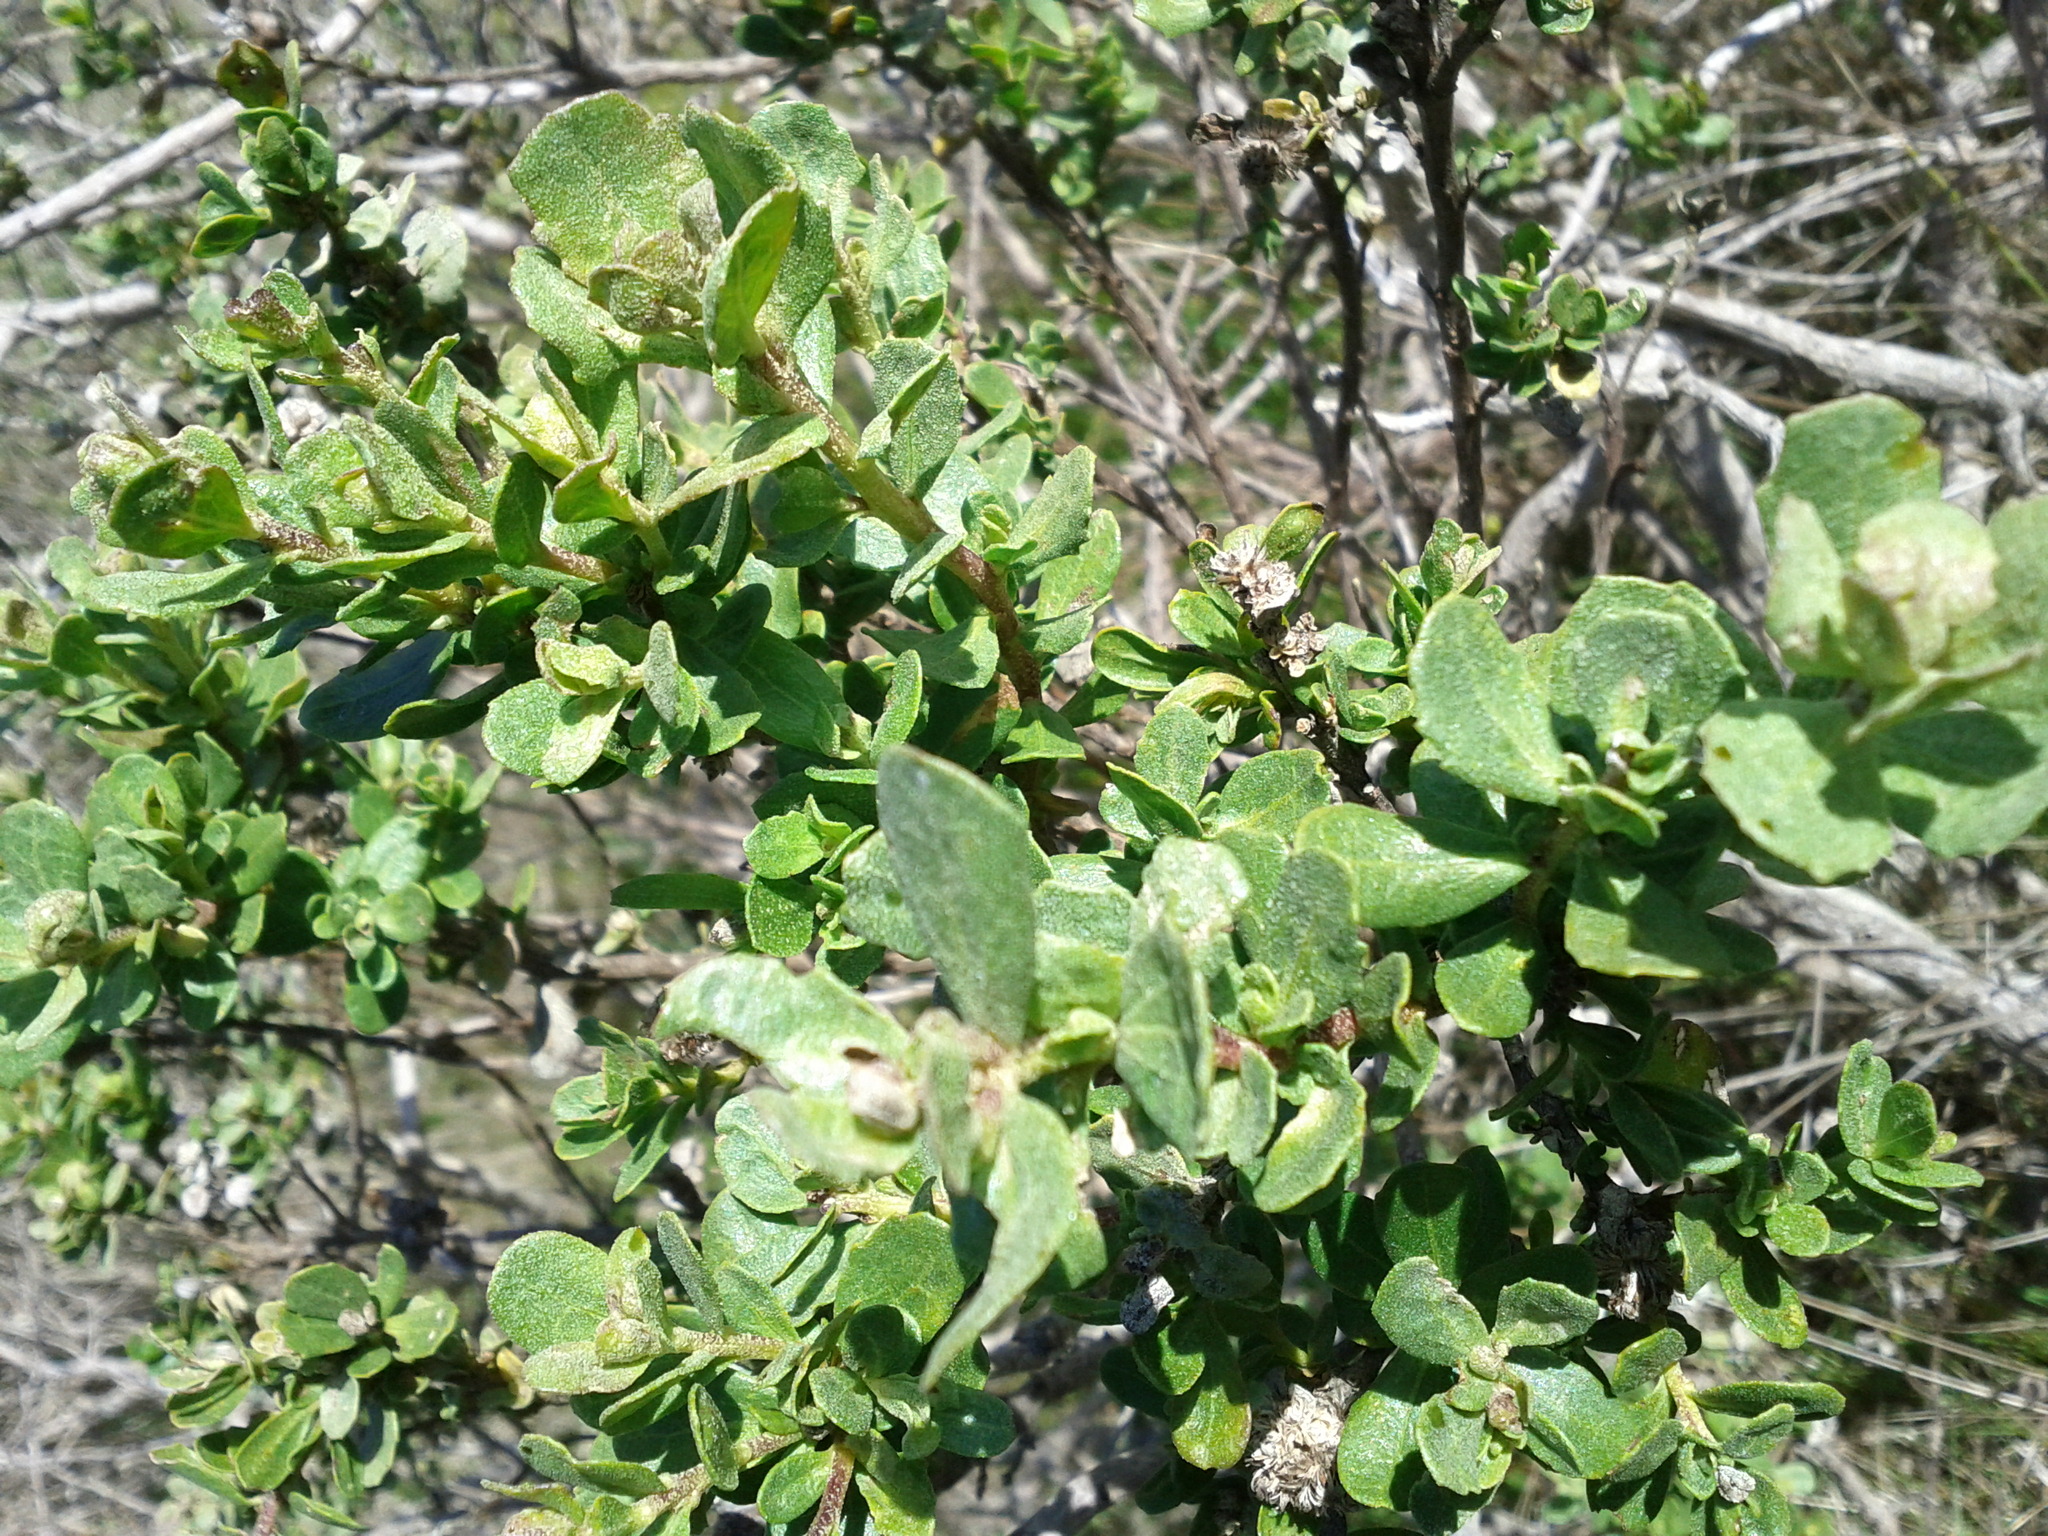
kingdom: Plantae
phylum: Tracheophyta
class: Magnoliopsida
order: Asterales
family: Asteraceae
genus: Baccharis
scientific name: Baccharis pilularis
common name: Coyotebrush
